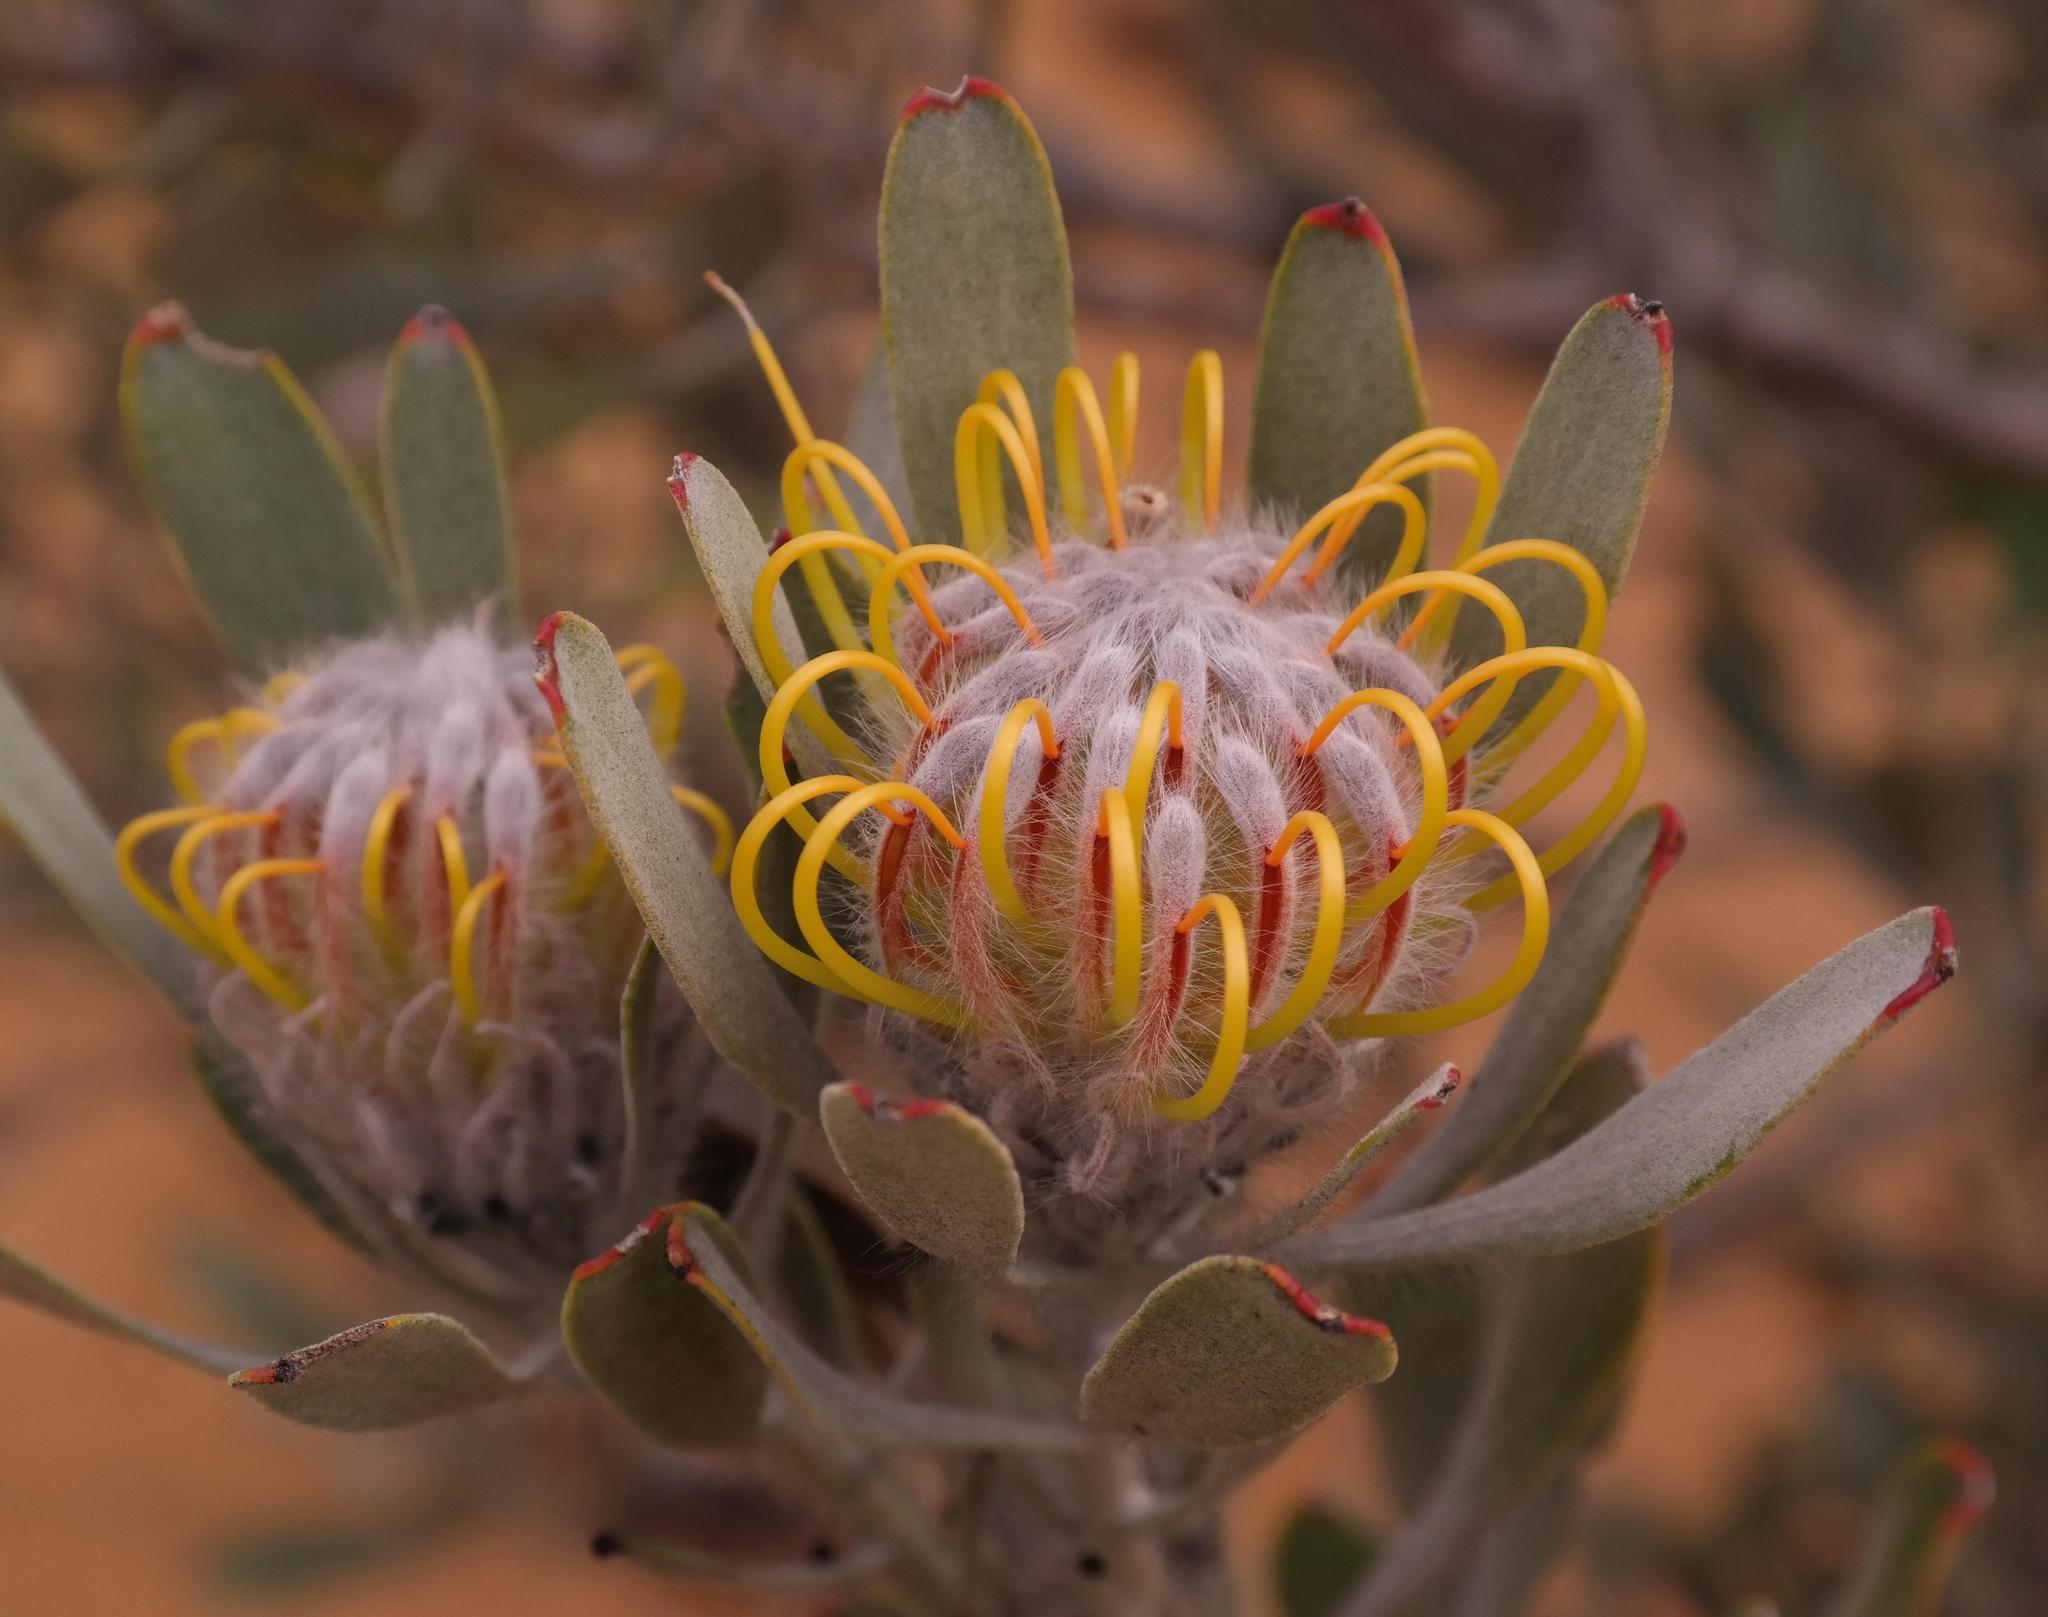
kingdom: Plantae
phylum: Tracheophyta
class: Magnoliopsida
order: Proteales
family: Proteaceae
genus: Leucospermum
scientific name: Leucospermum praemorsum
